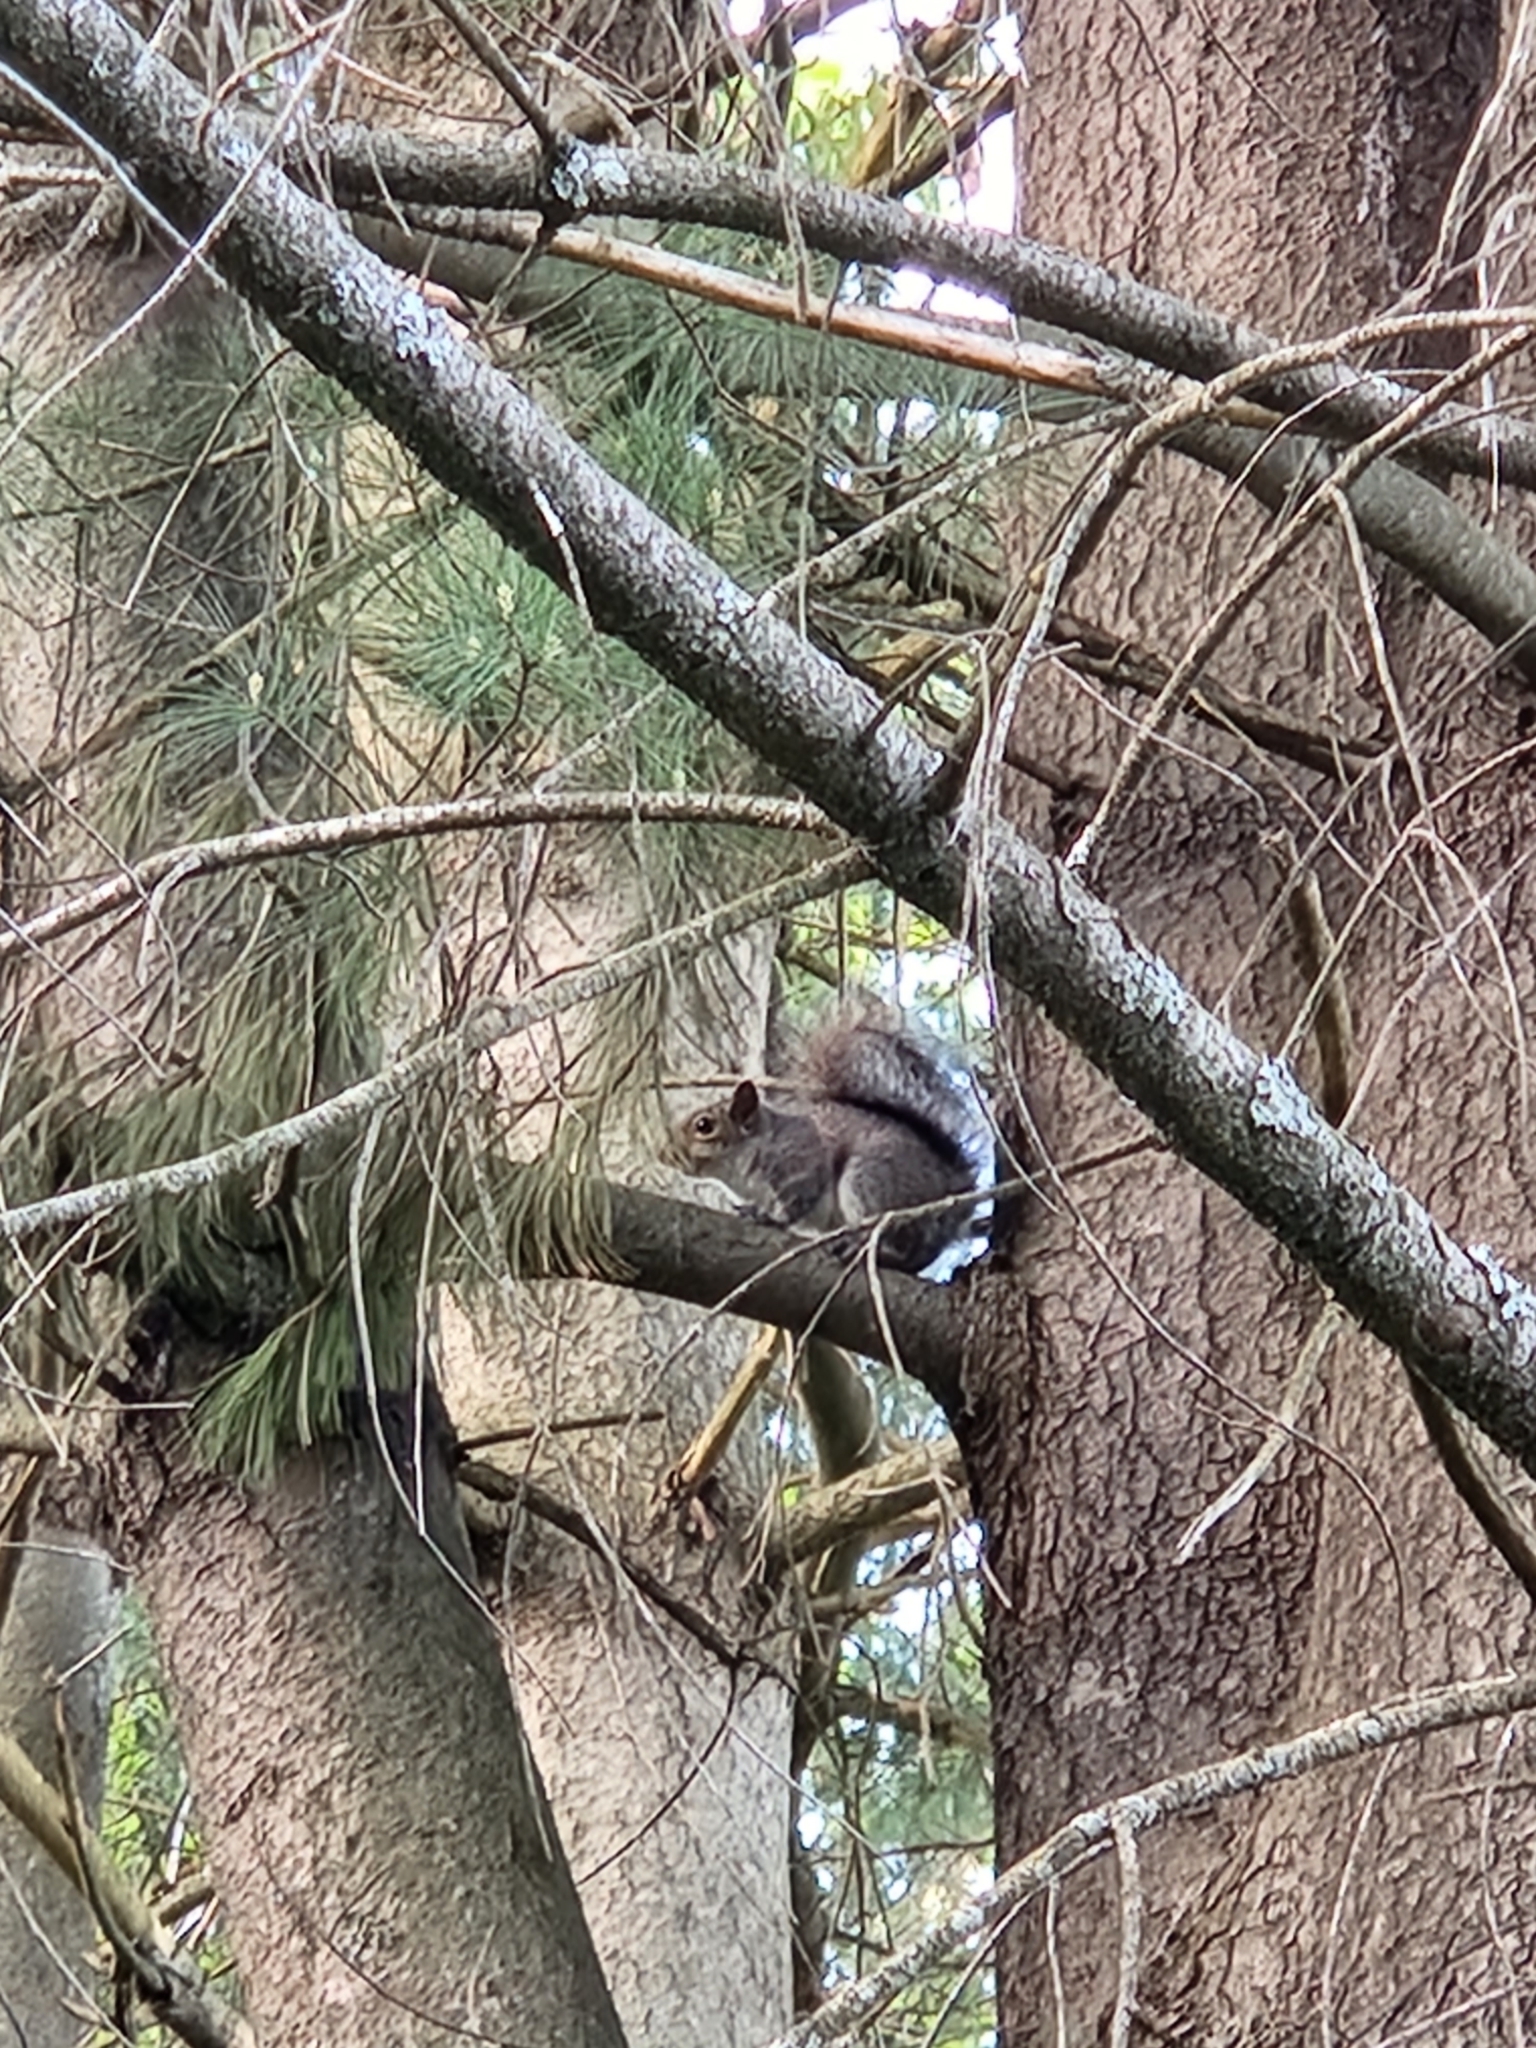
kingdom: Animalia
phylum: Chordata
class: Mammalia
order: Rodentia
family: Sciuridae
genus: Sciurus
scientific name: Sciurus carolinensis
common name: Eastern gray squirrel
